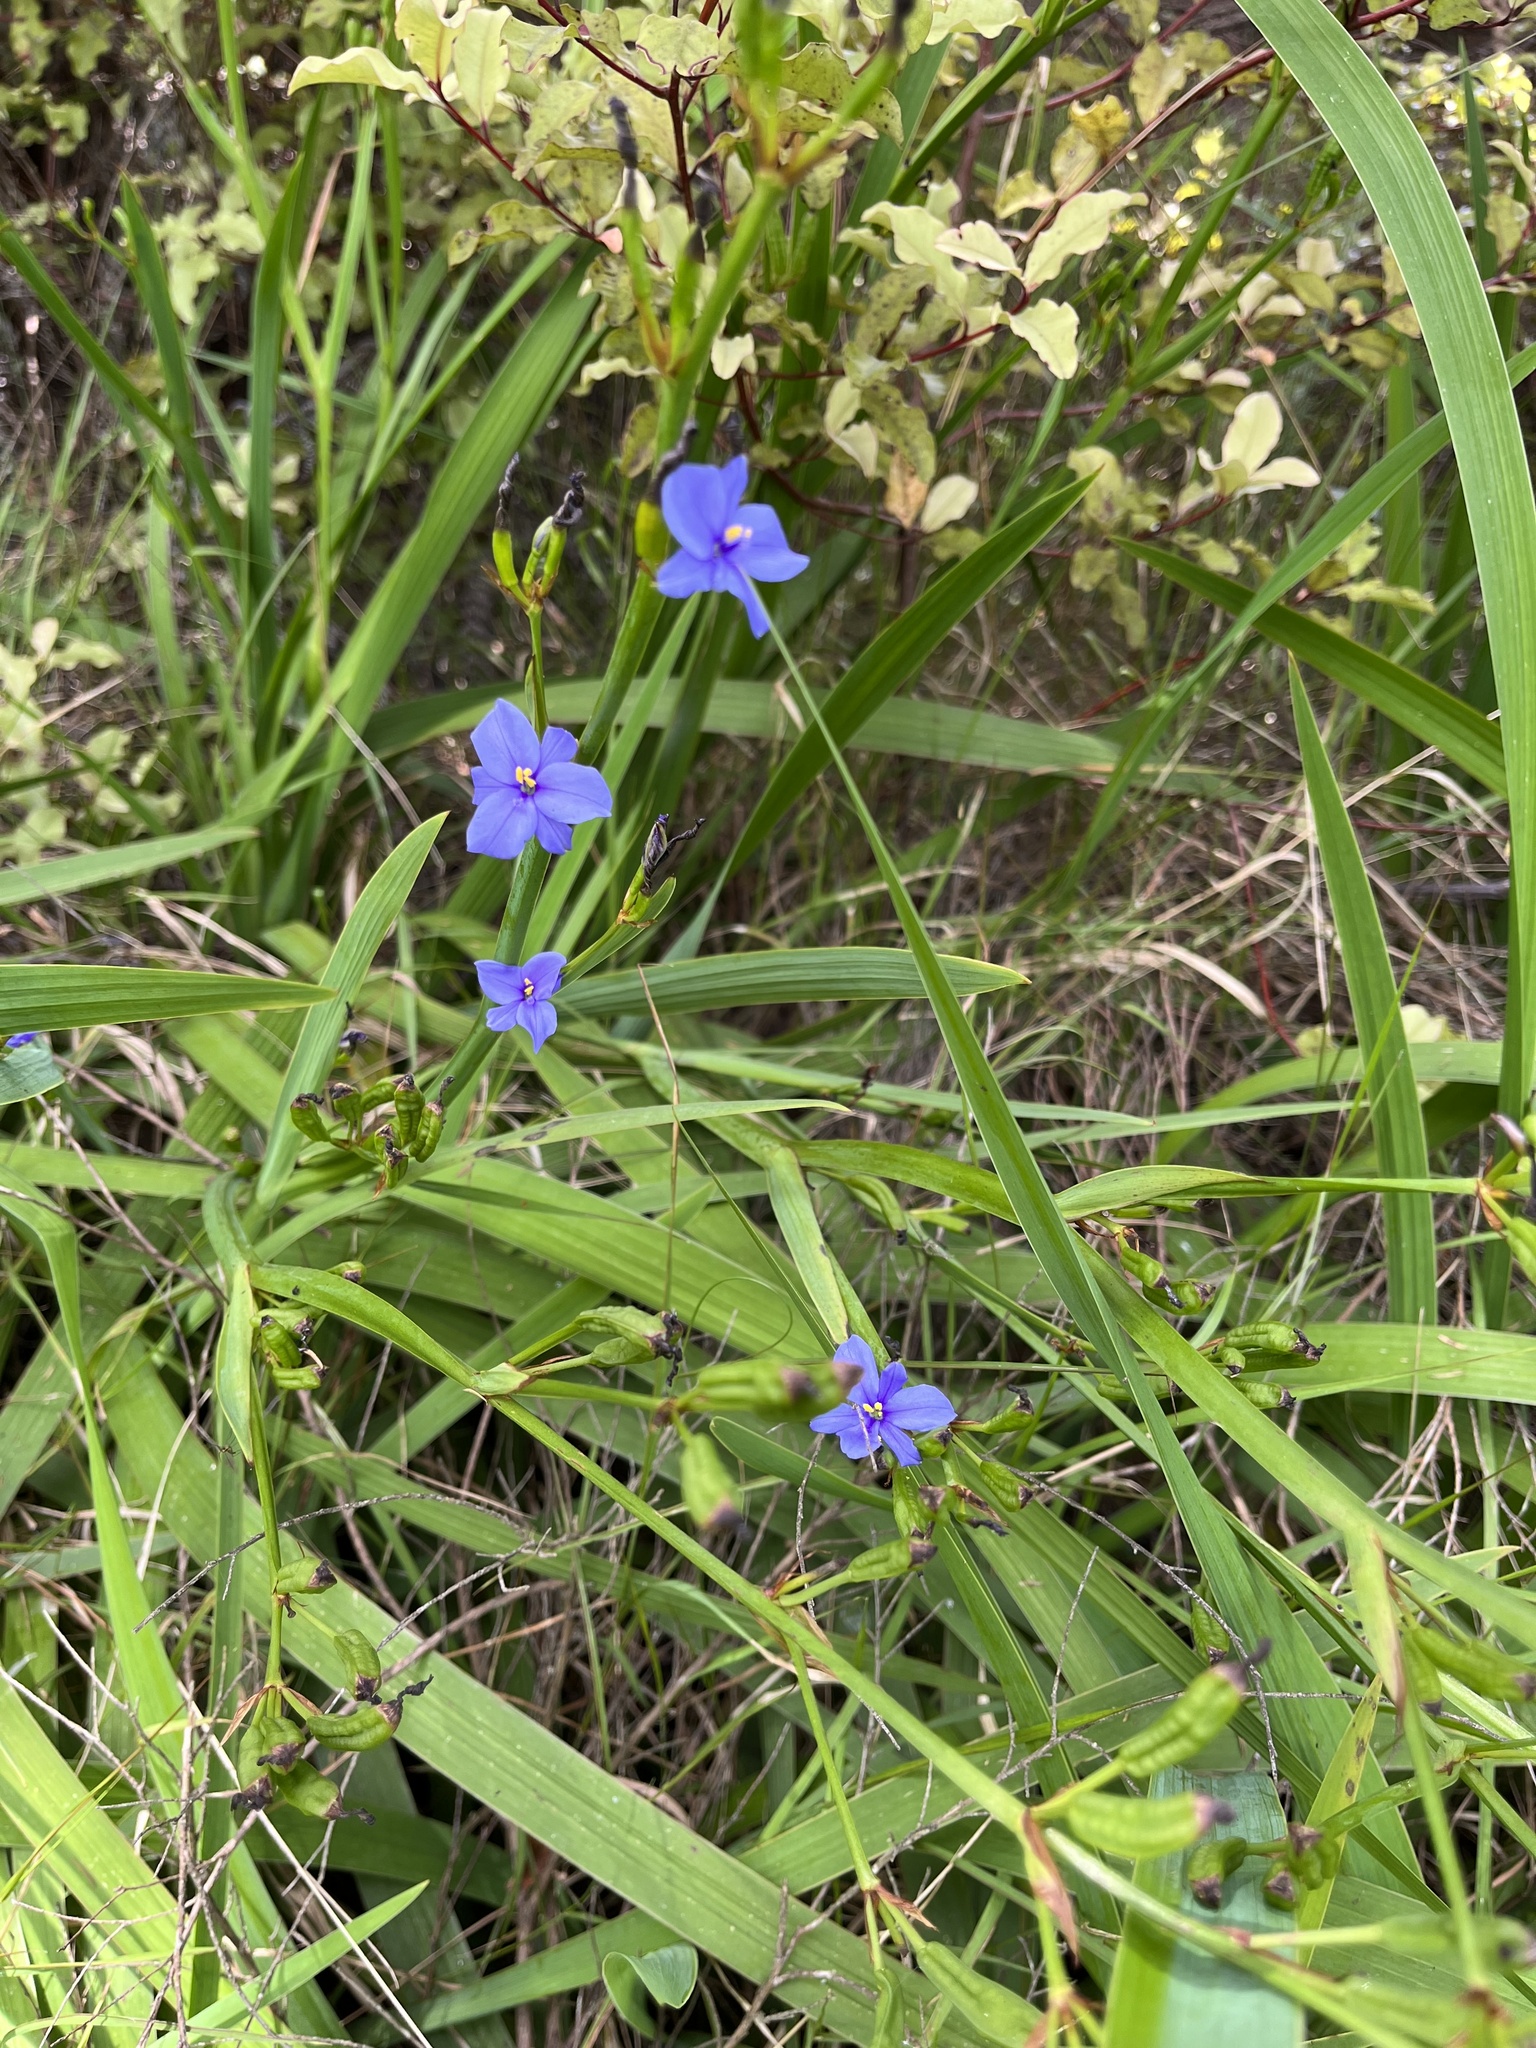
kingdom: Plantae
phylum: Tracheophyta
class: Liliopsida
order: Asparagales
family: Iridaceae
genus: Aristea
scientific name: Aristea ecklonii
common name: Blue corn-lily
